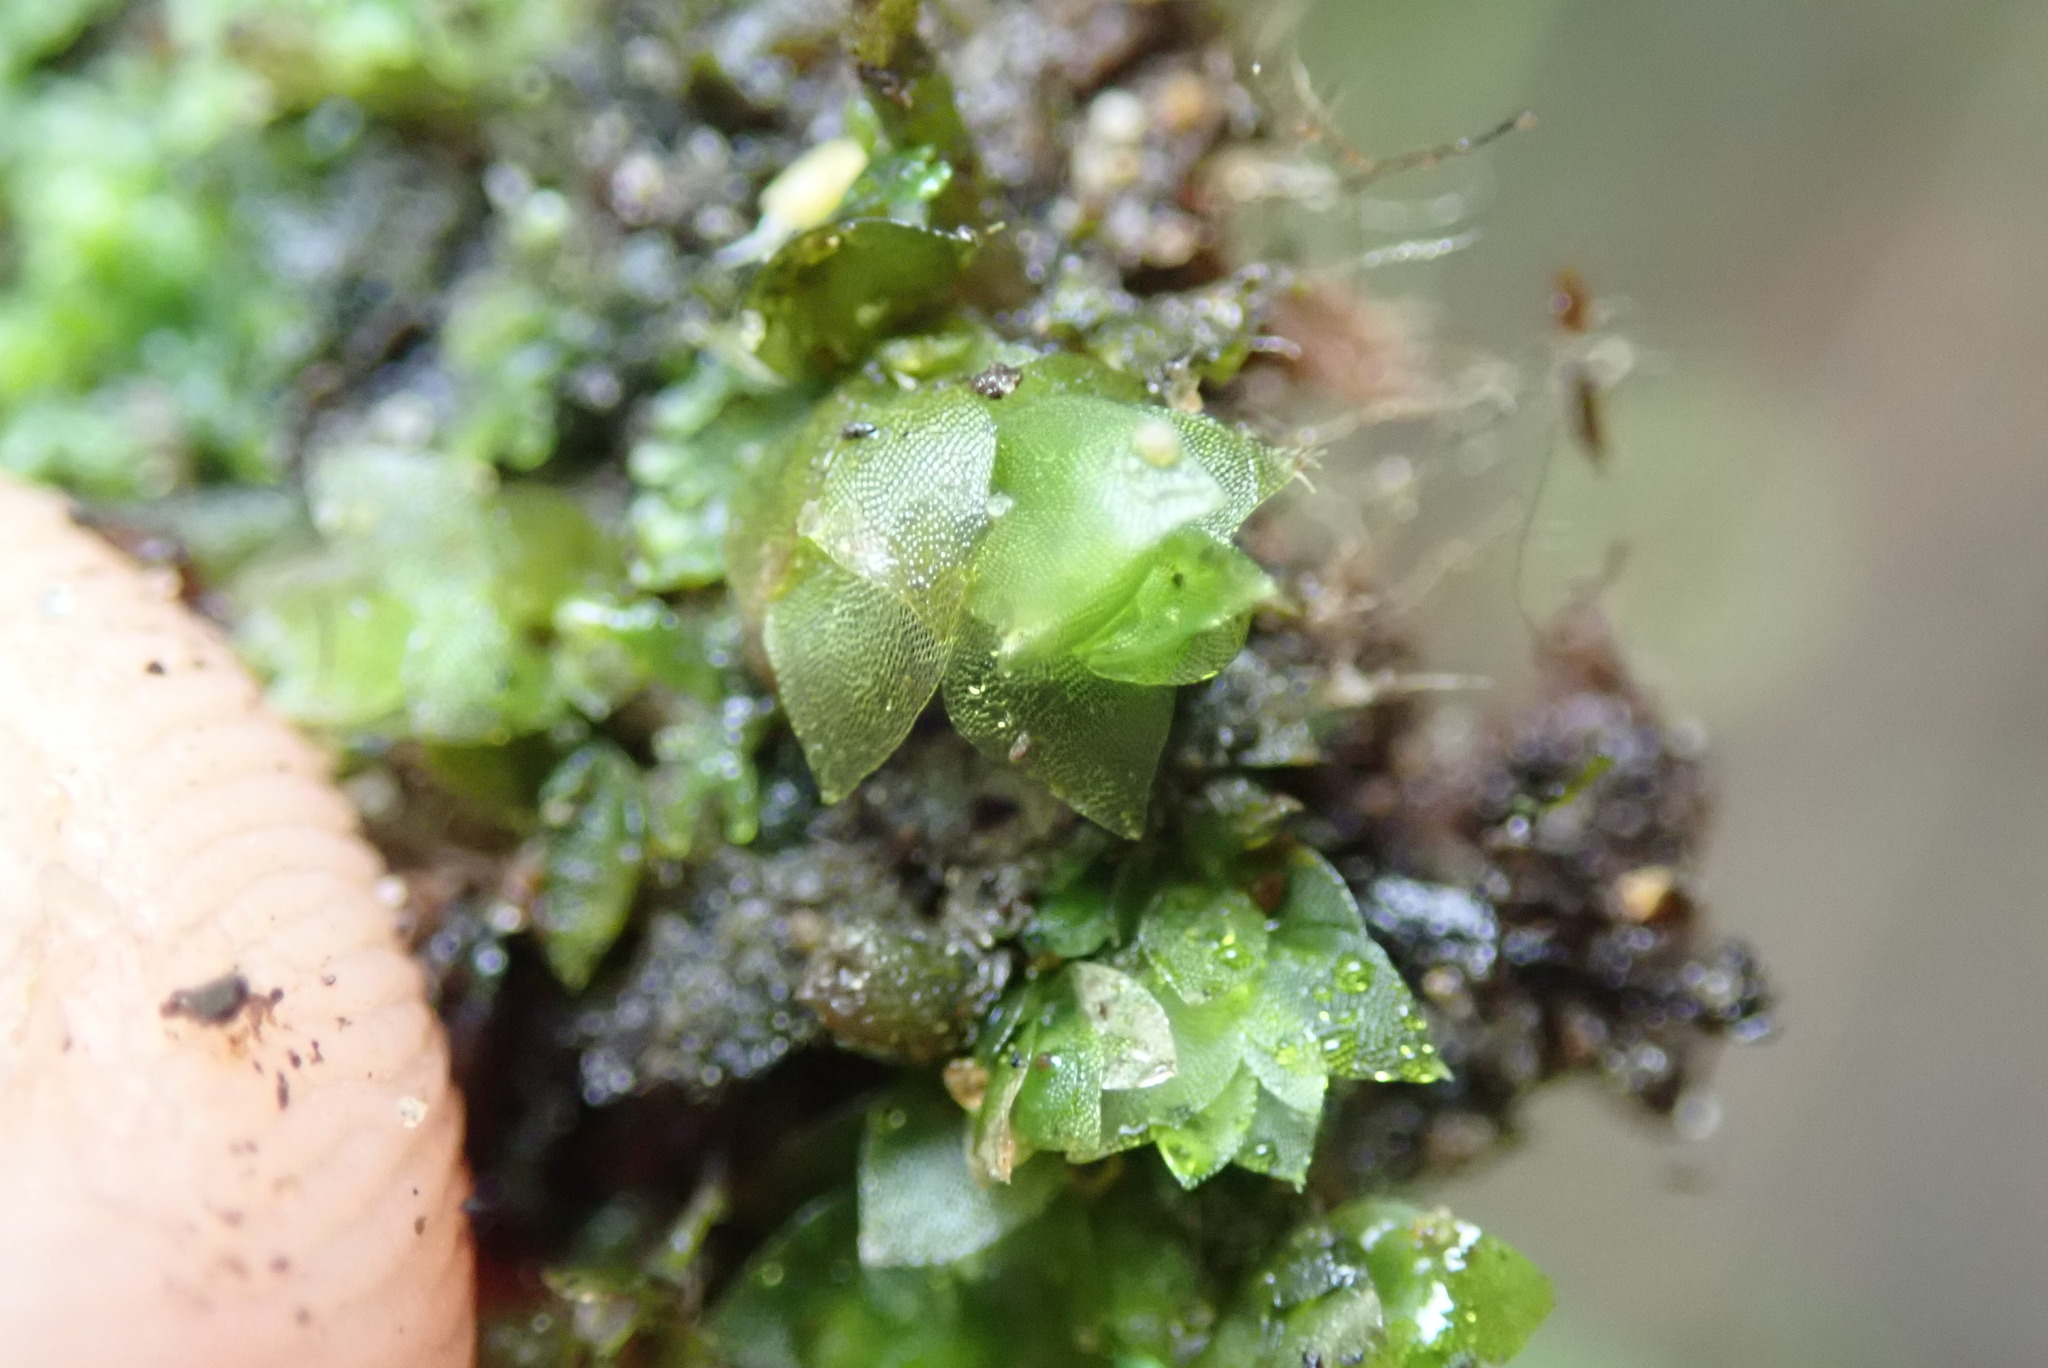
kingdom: Plantae
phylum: Bryophyta
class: Bryopsida
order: Hookeriales
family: Hookeriaceae
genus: Hookeria
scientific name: Hookeria acutifolia
